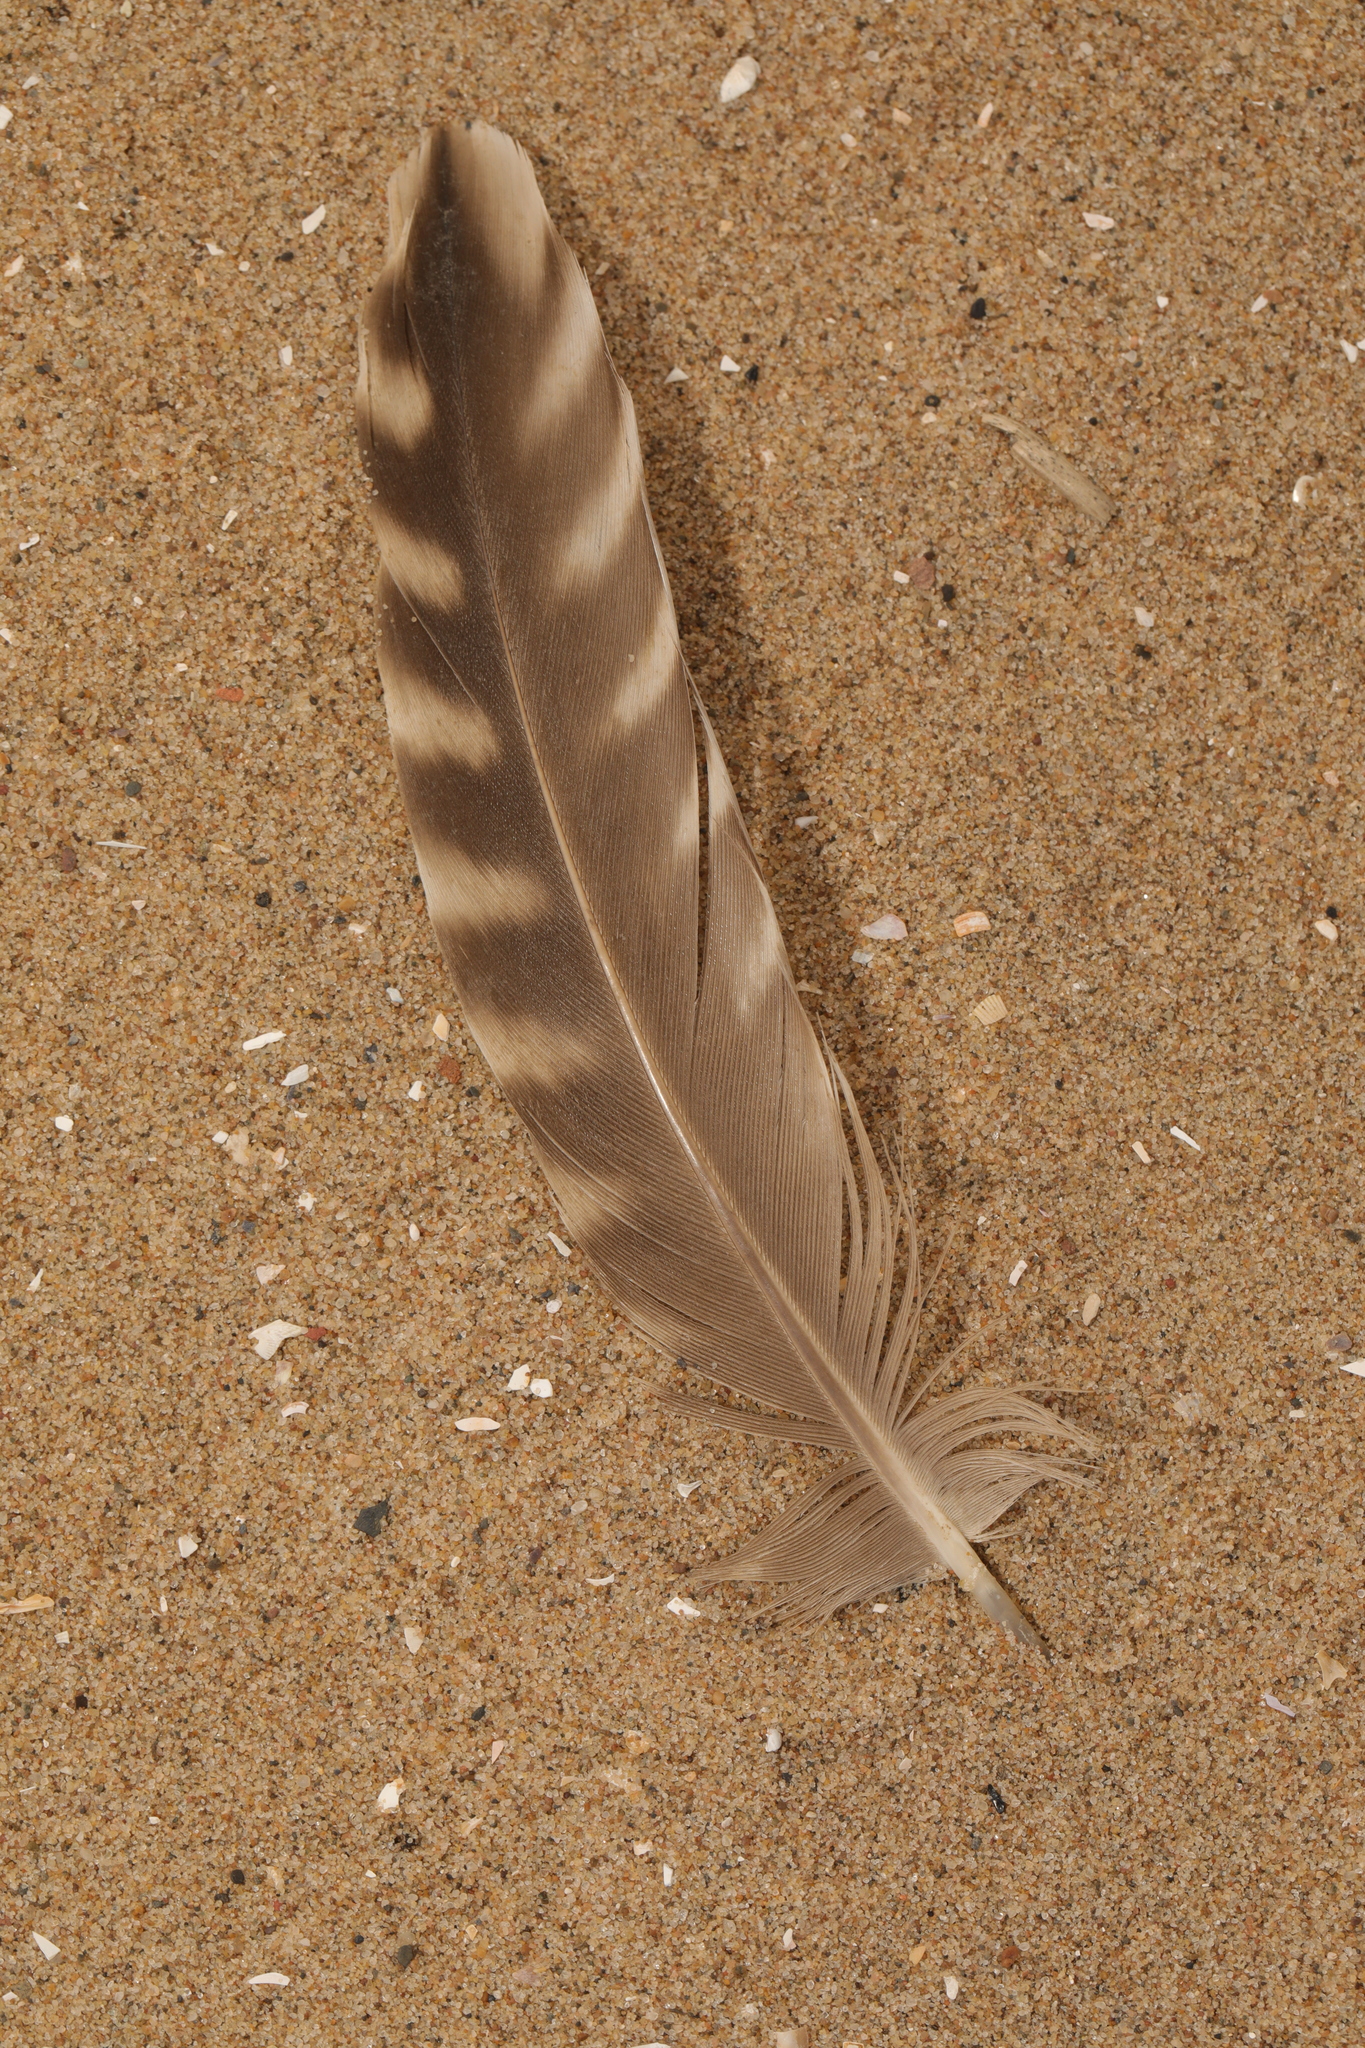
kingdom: Animalia
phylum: Chordata
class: Aves
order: Charadriiformes
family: Scolopacidae
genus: Numenius
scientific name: Numenius arquata
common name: Eurasian curlew
